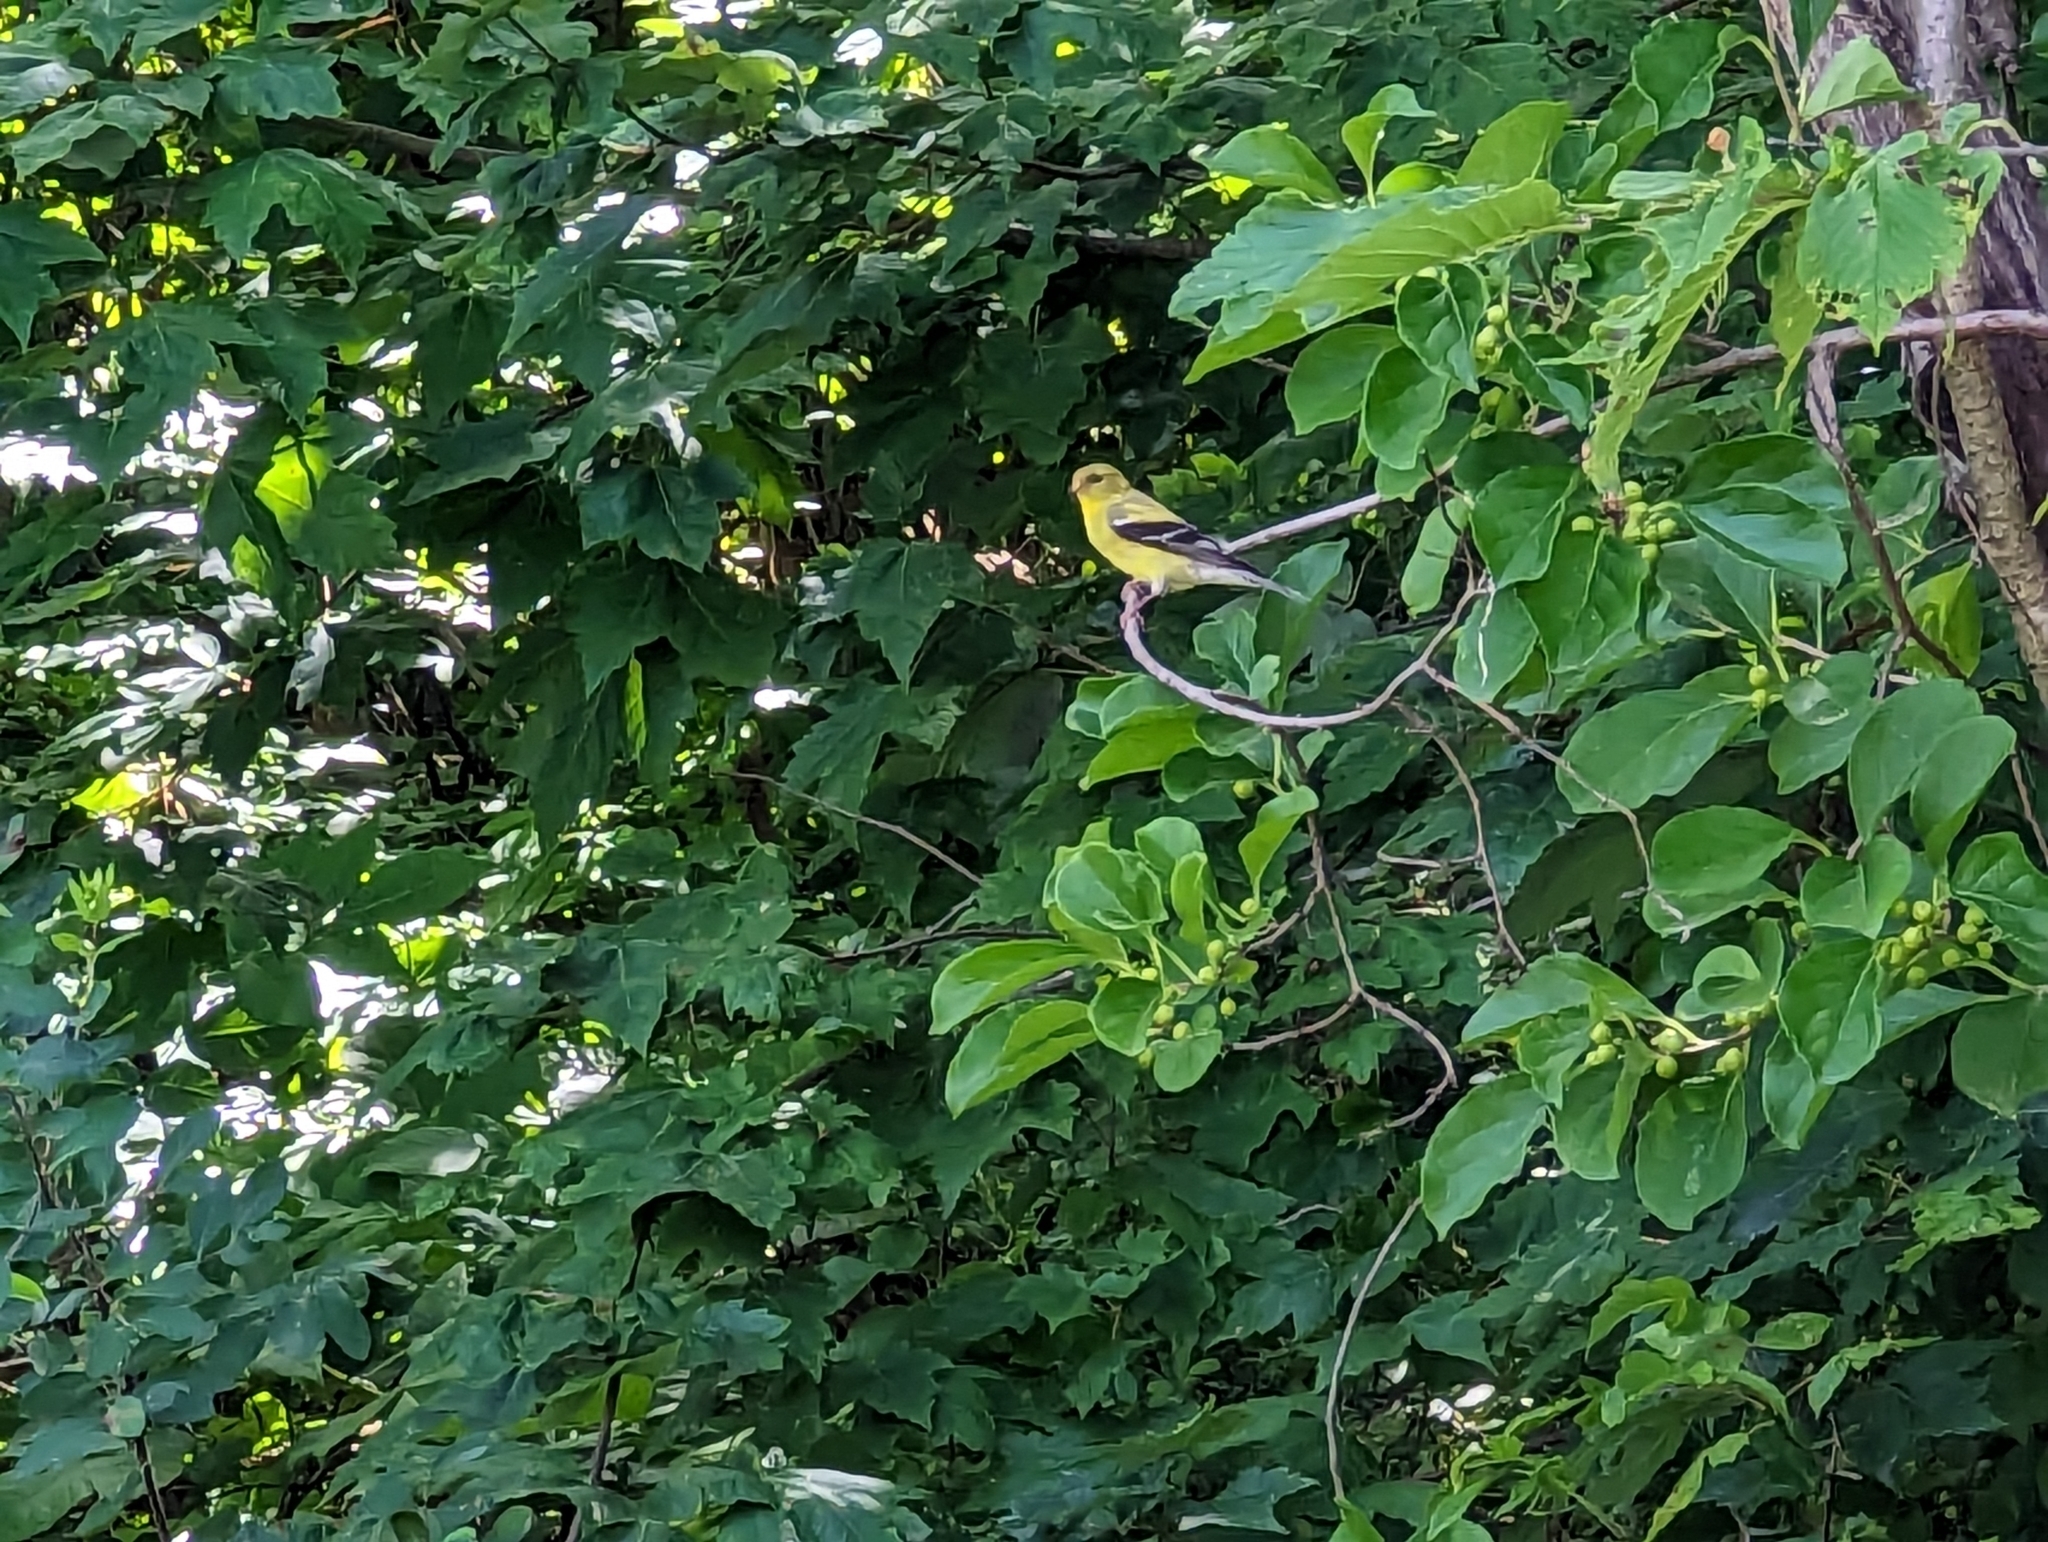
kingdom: Animalia
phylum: Chordata
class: Aves
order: Passeriformes
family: Fringillidae
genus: Spinus
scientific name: Spinus tristis
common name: American goldfinch
